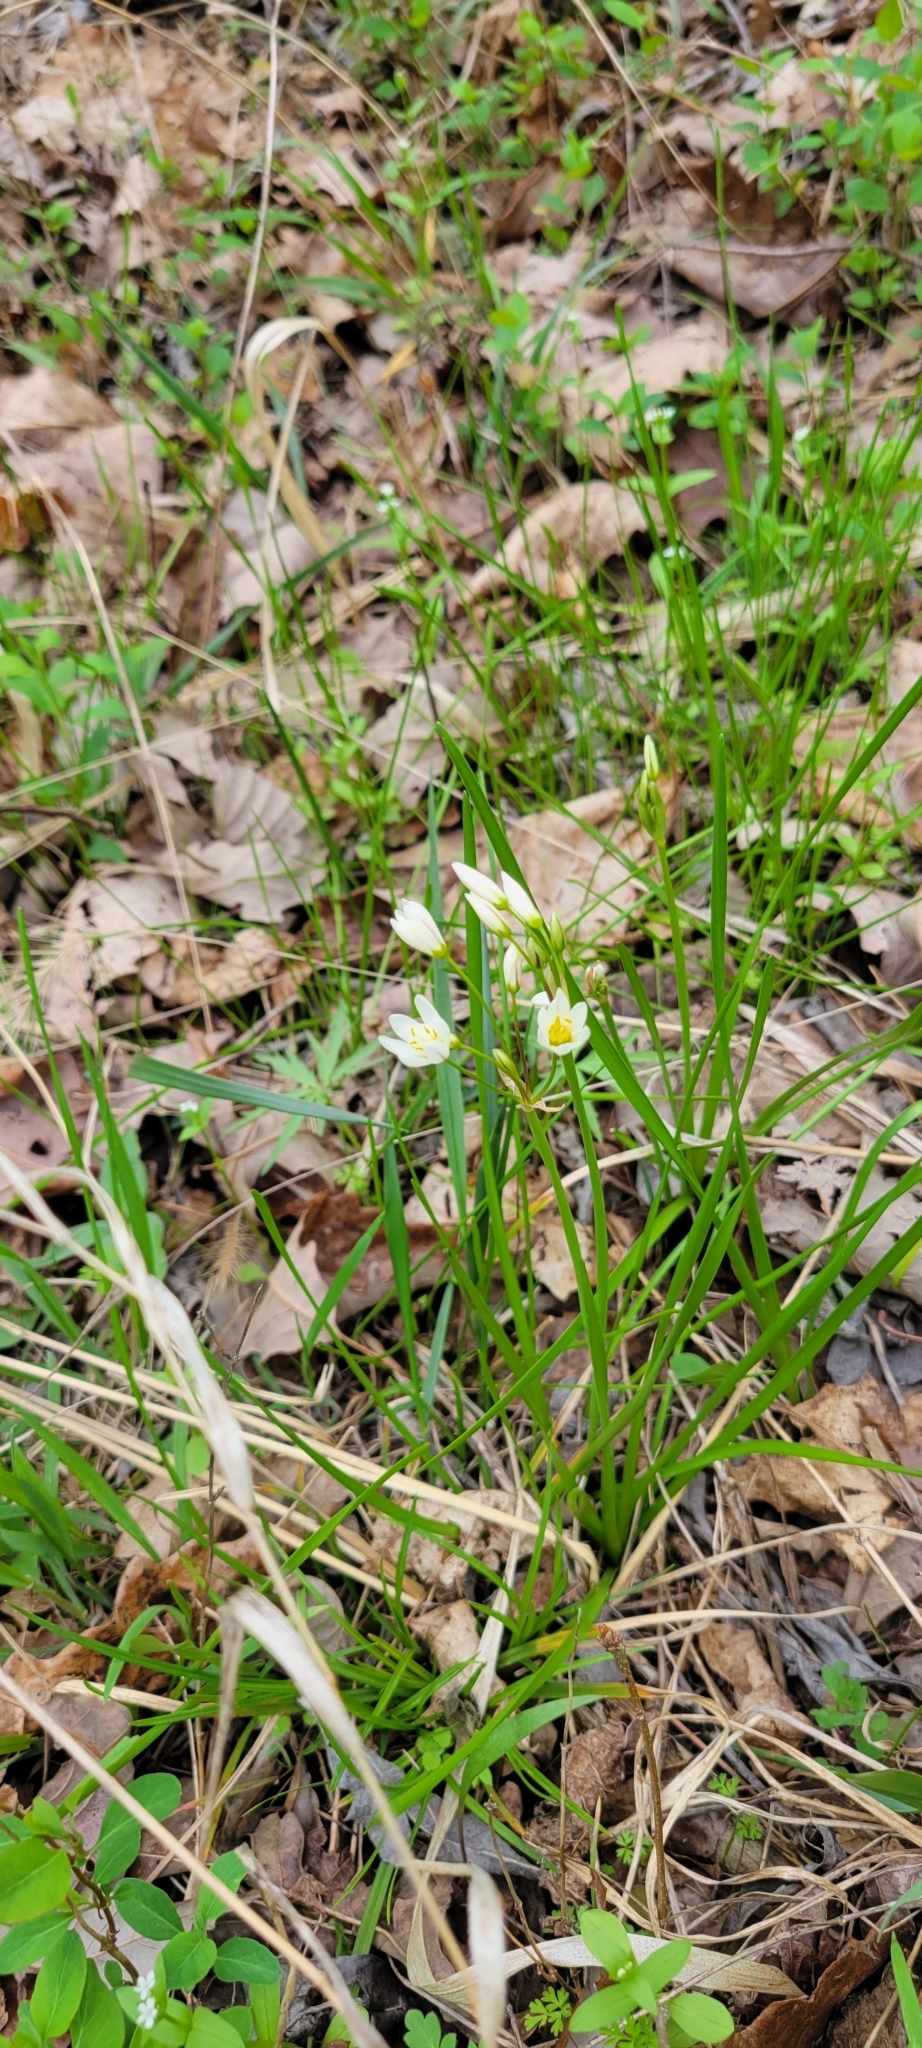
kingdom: Plantae
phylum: Tracheophyta
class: Liliopsida
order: Asparagales
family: Amaryllidaceae
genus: Nothoscordum
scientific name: Nothoscordum bivalve
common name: Crow-poison
